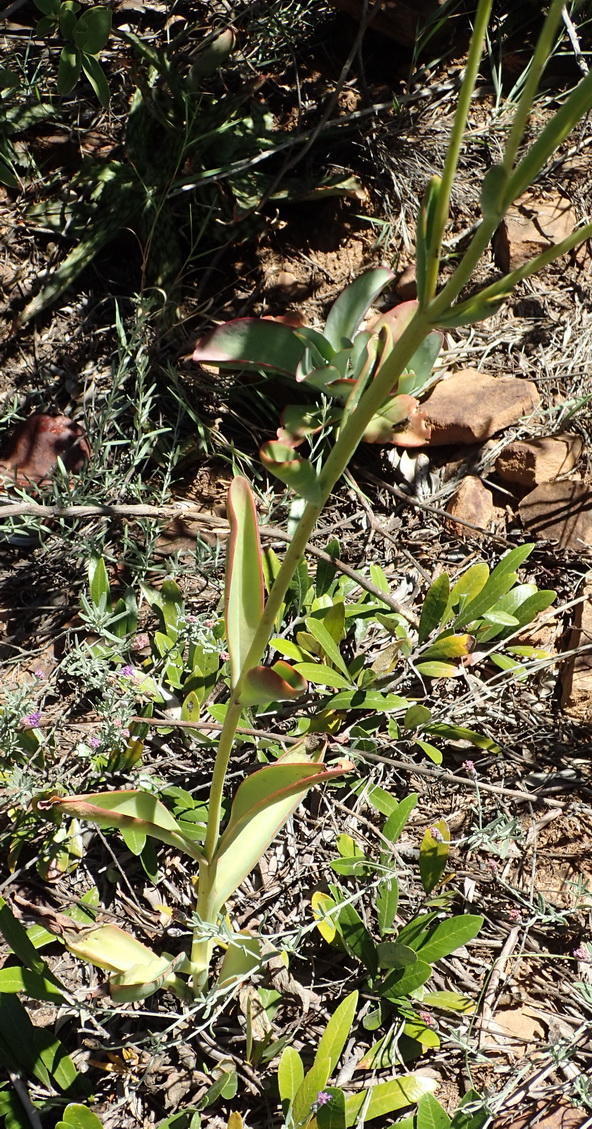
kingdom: Plantae
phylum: Tracheophyta
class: Magnoliopsida
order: Saxifragales
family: Crassulaceae
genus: Kalanchoe
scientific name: Kalanchoe paniculata
